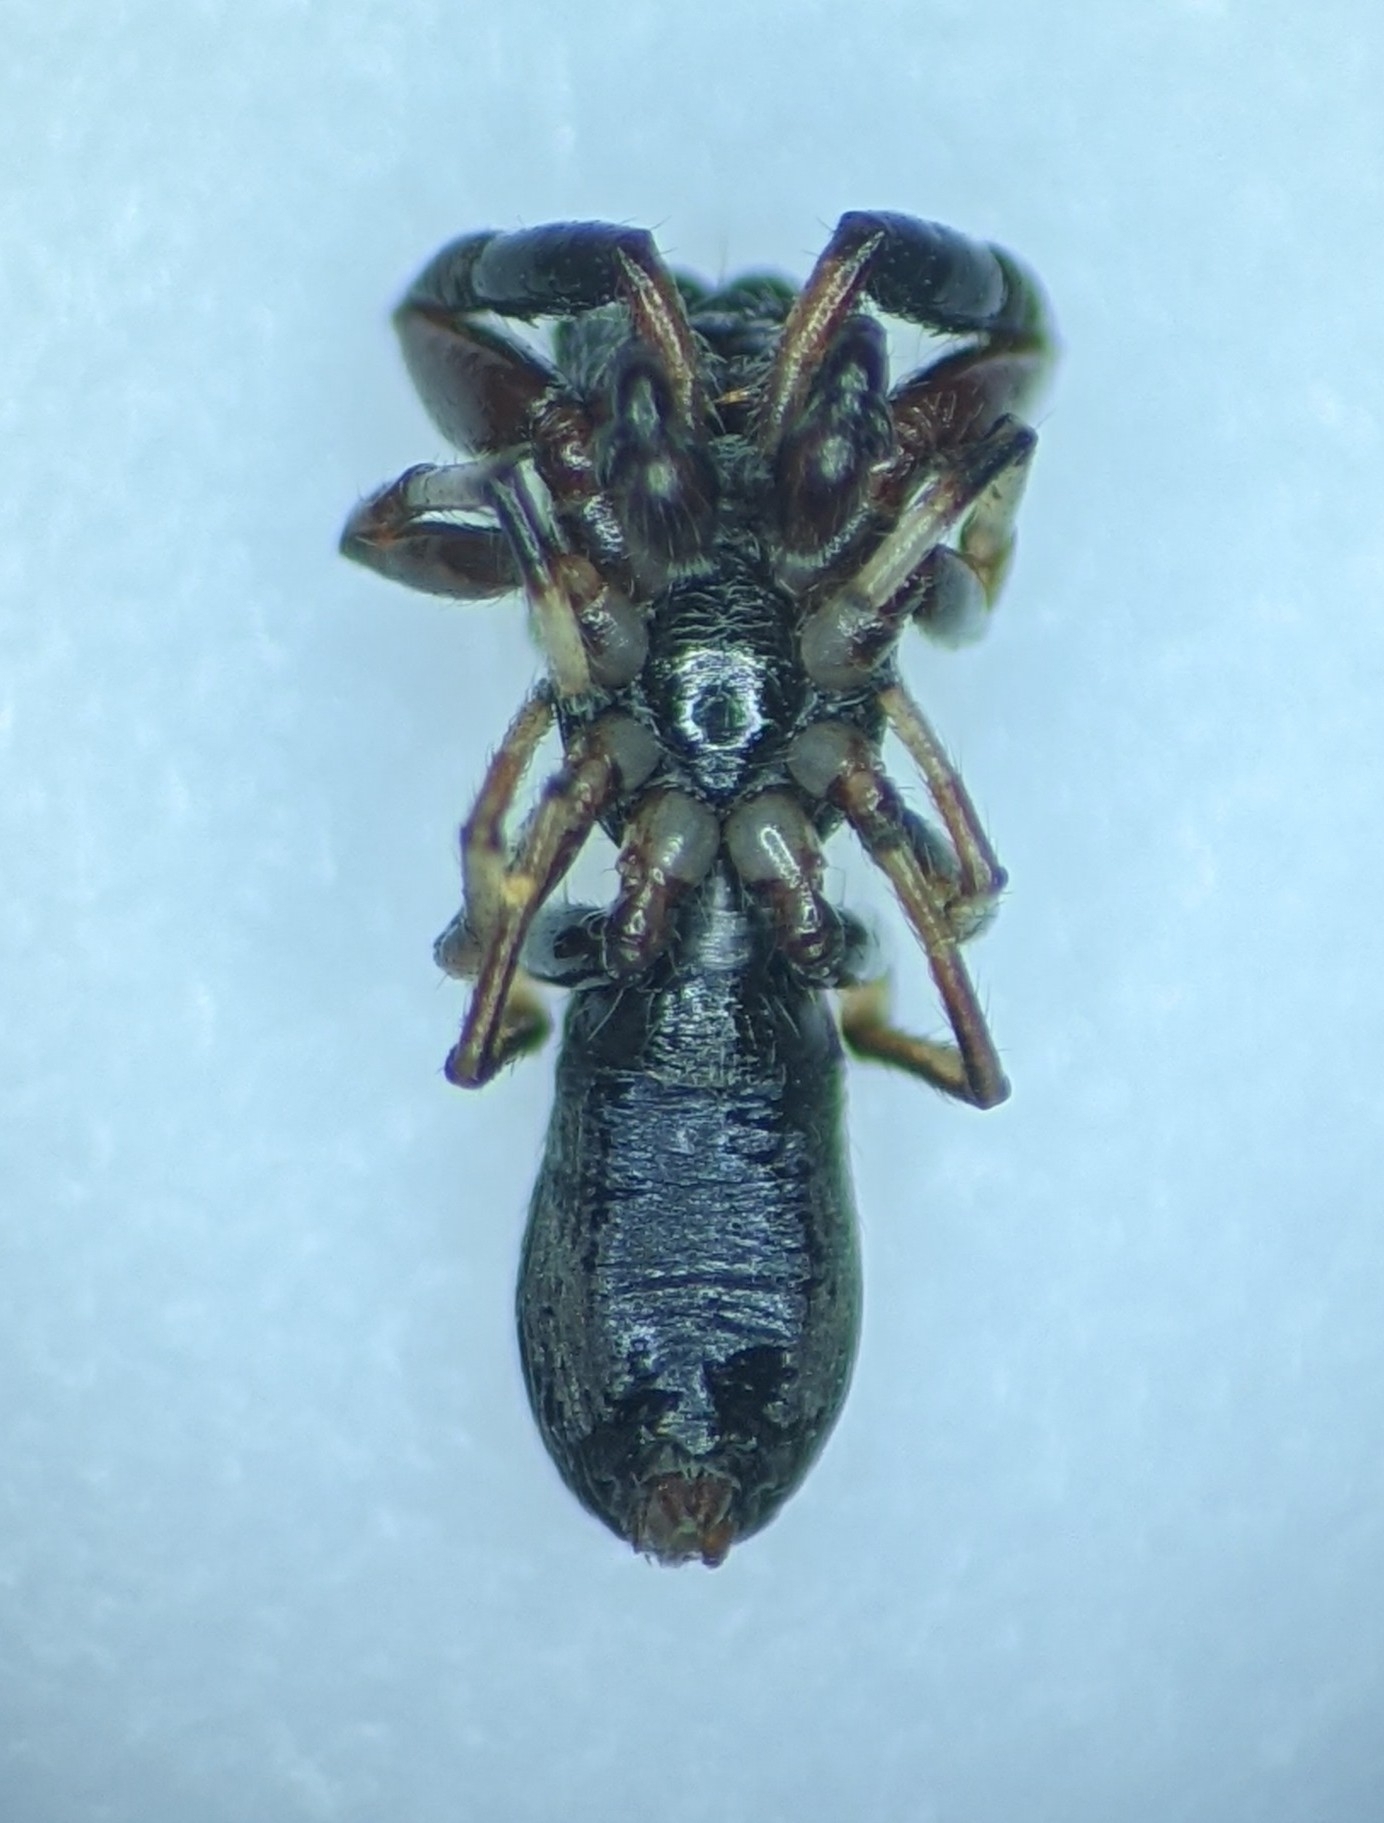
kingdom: Animalia
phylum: Arthropoda
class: Arachnida
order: Araneae
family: Salticidae
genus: Synageles
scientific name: Synageles albotrimaculatus
